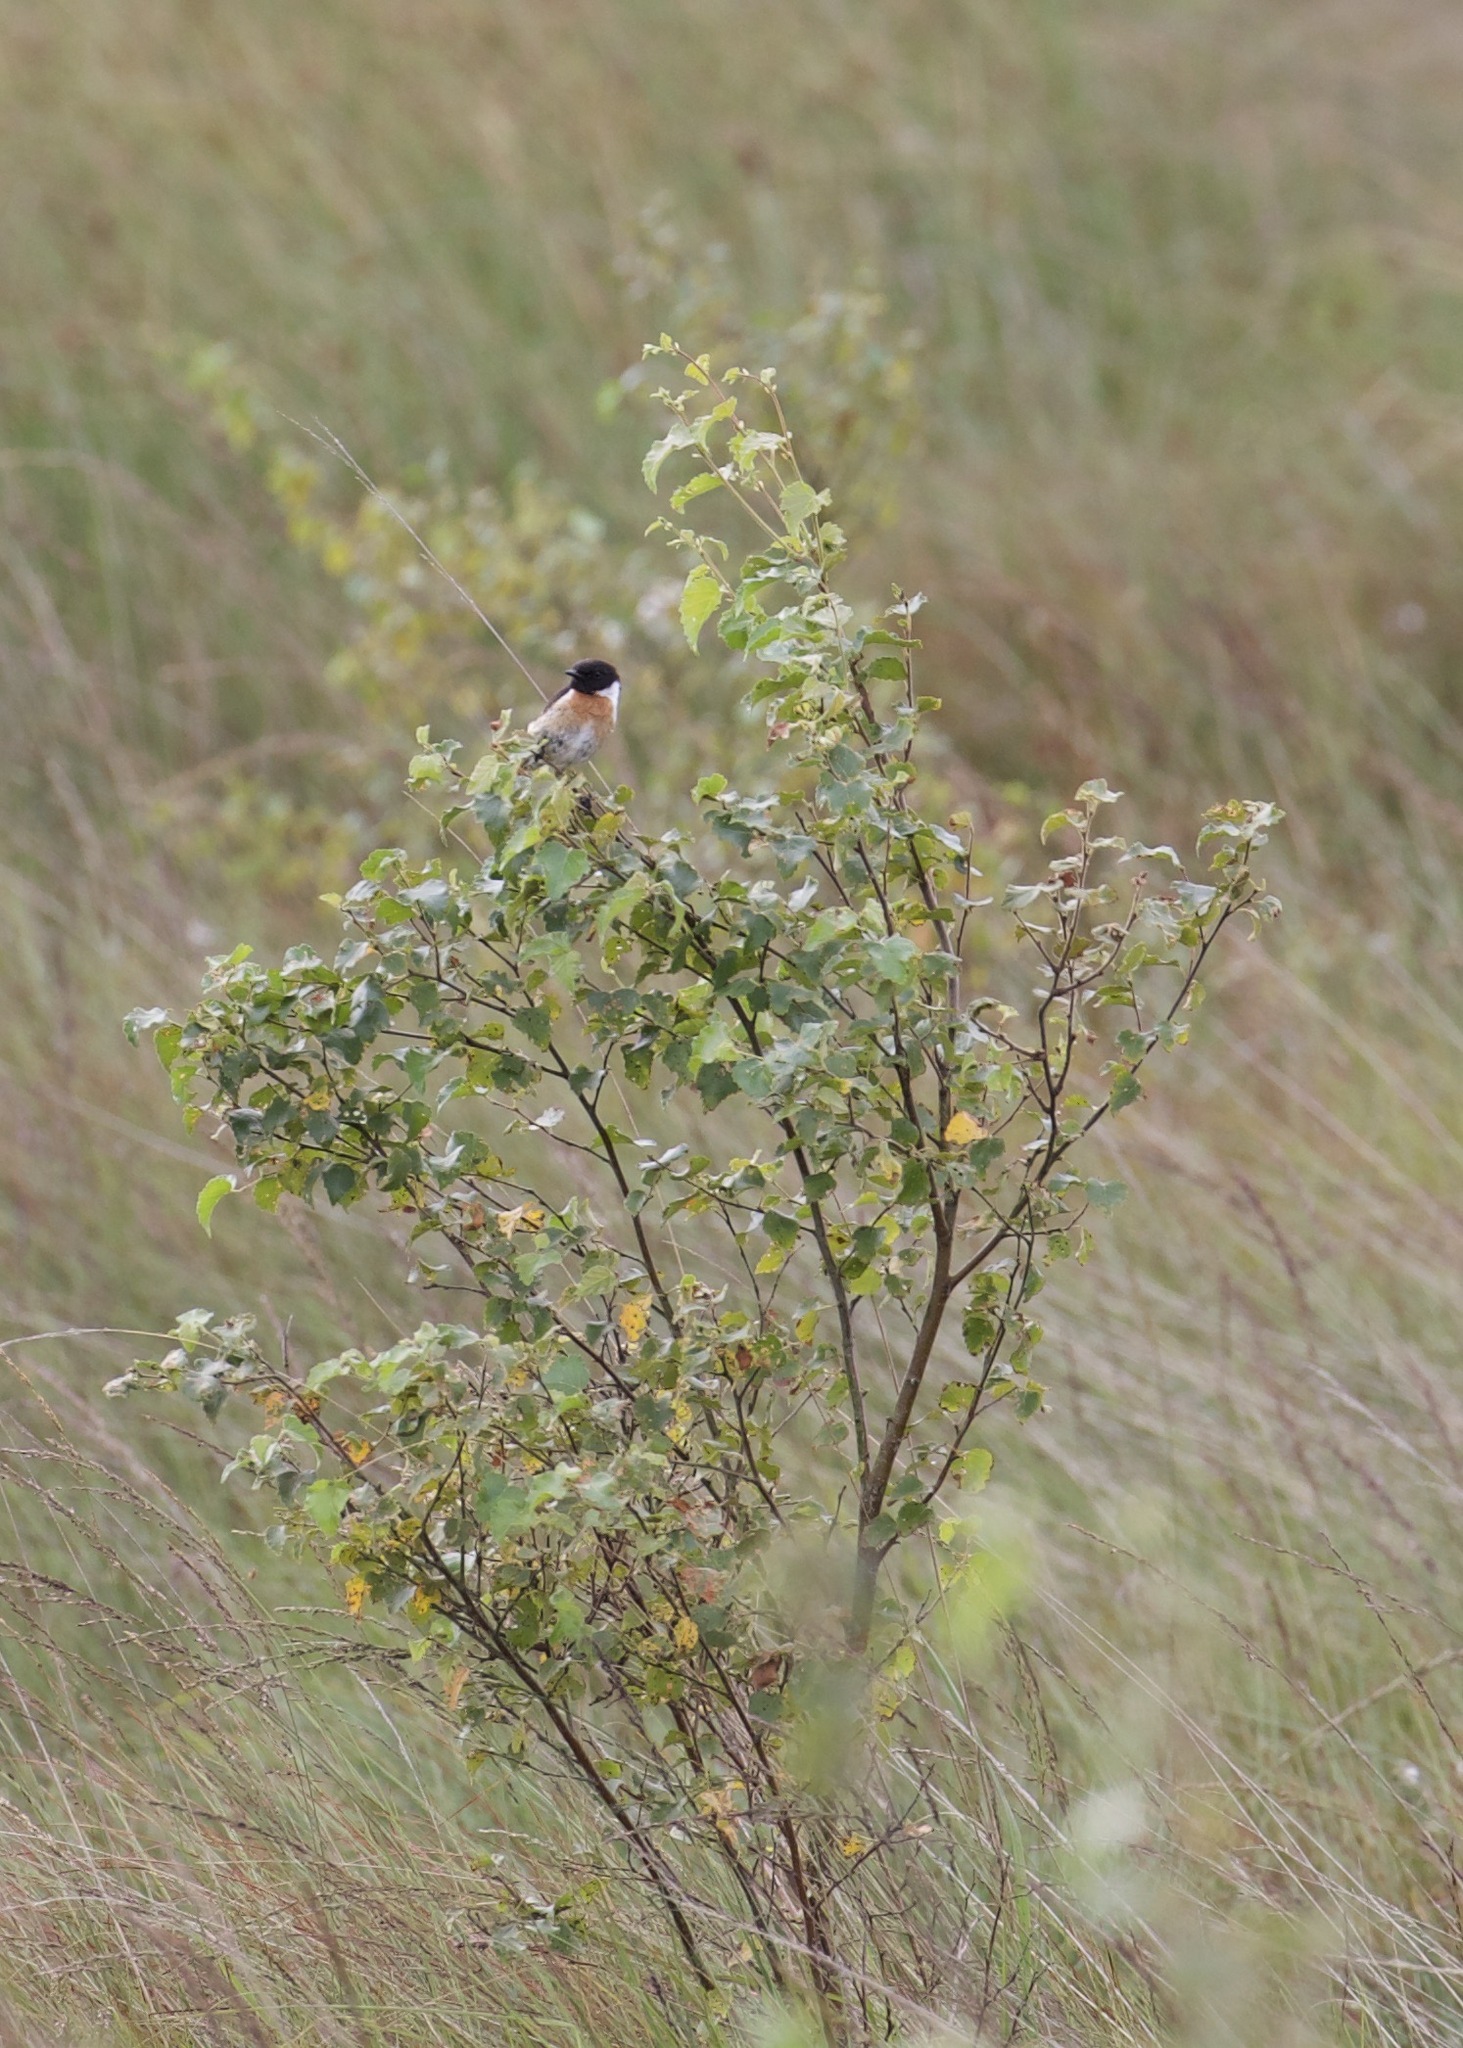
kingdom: Animalia
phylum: Chordata
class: Aves
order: Passeriformes
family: Muscicapidae
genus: Saxicola
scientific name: Saxicola rubicola
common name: European stonechat
